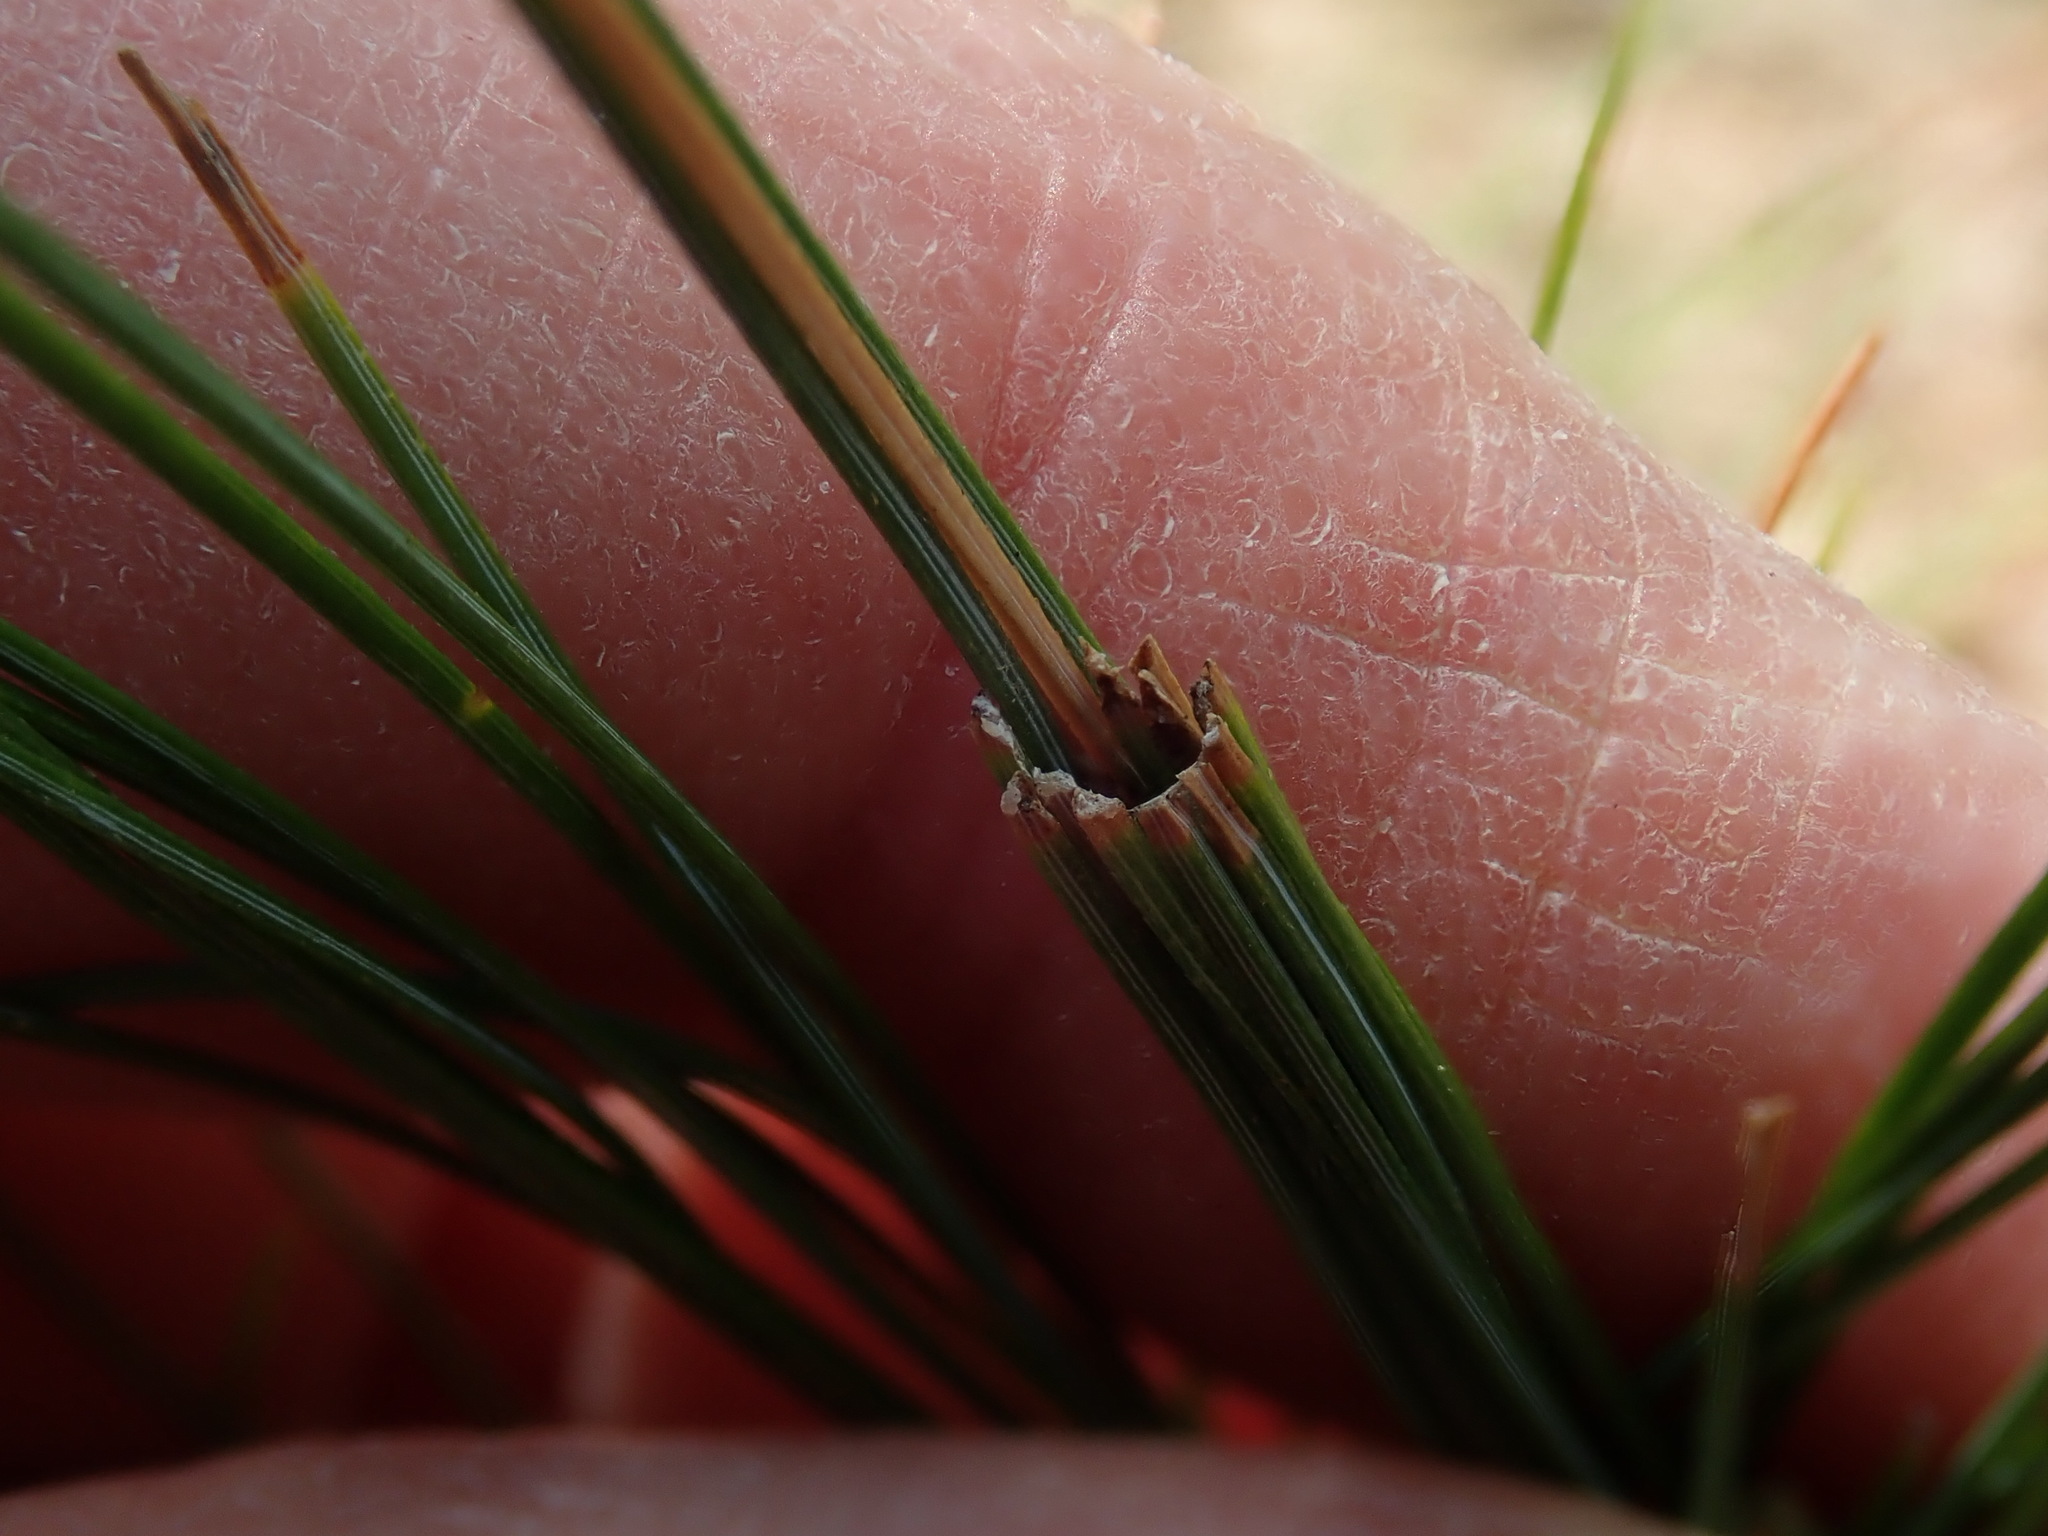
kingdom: Animalia
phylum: Arthropoda
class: Insecta
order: Lepidoptera
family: Tortricidae
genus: Argyrotaenia
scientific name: Argyrotaenia pinatubana
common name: Pine tube moth
